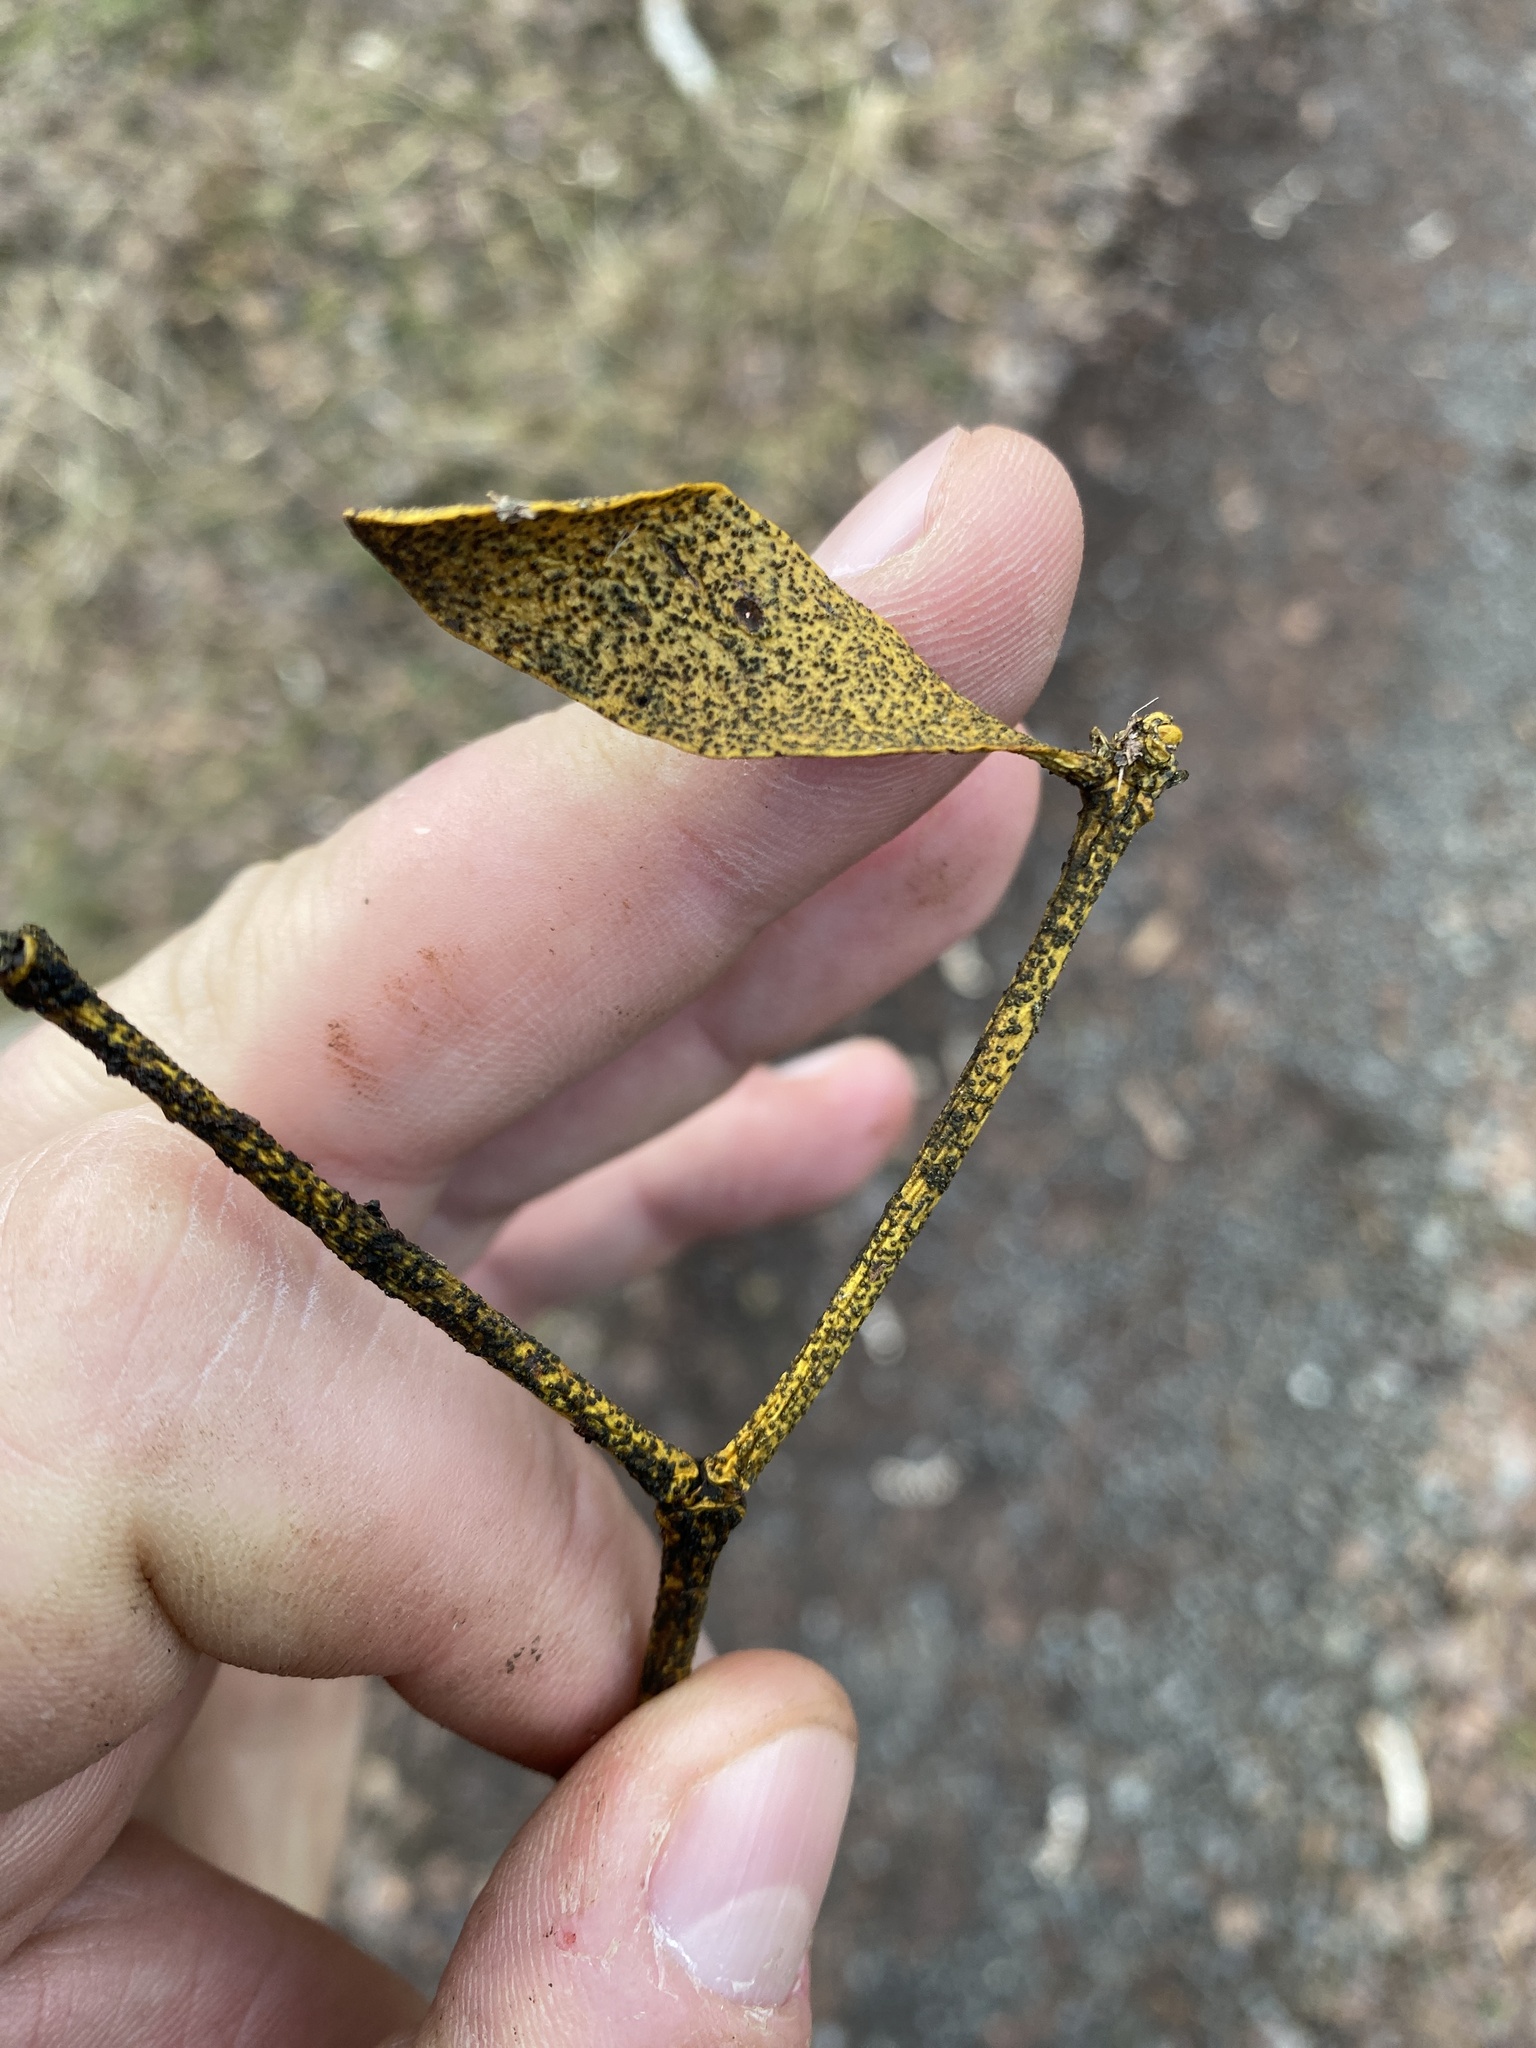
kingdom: Fungi
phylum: Ascomycota
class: Dothideomycetes
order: Botryosphaeriales
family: Botryosphaeriaceae
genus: Botryosphaeria
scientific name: Botryosphaeria visci
